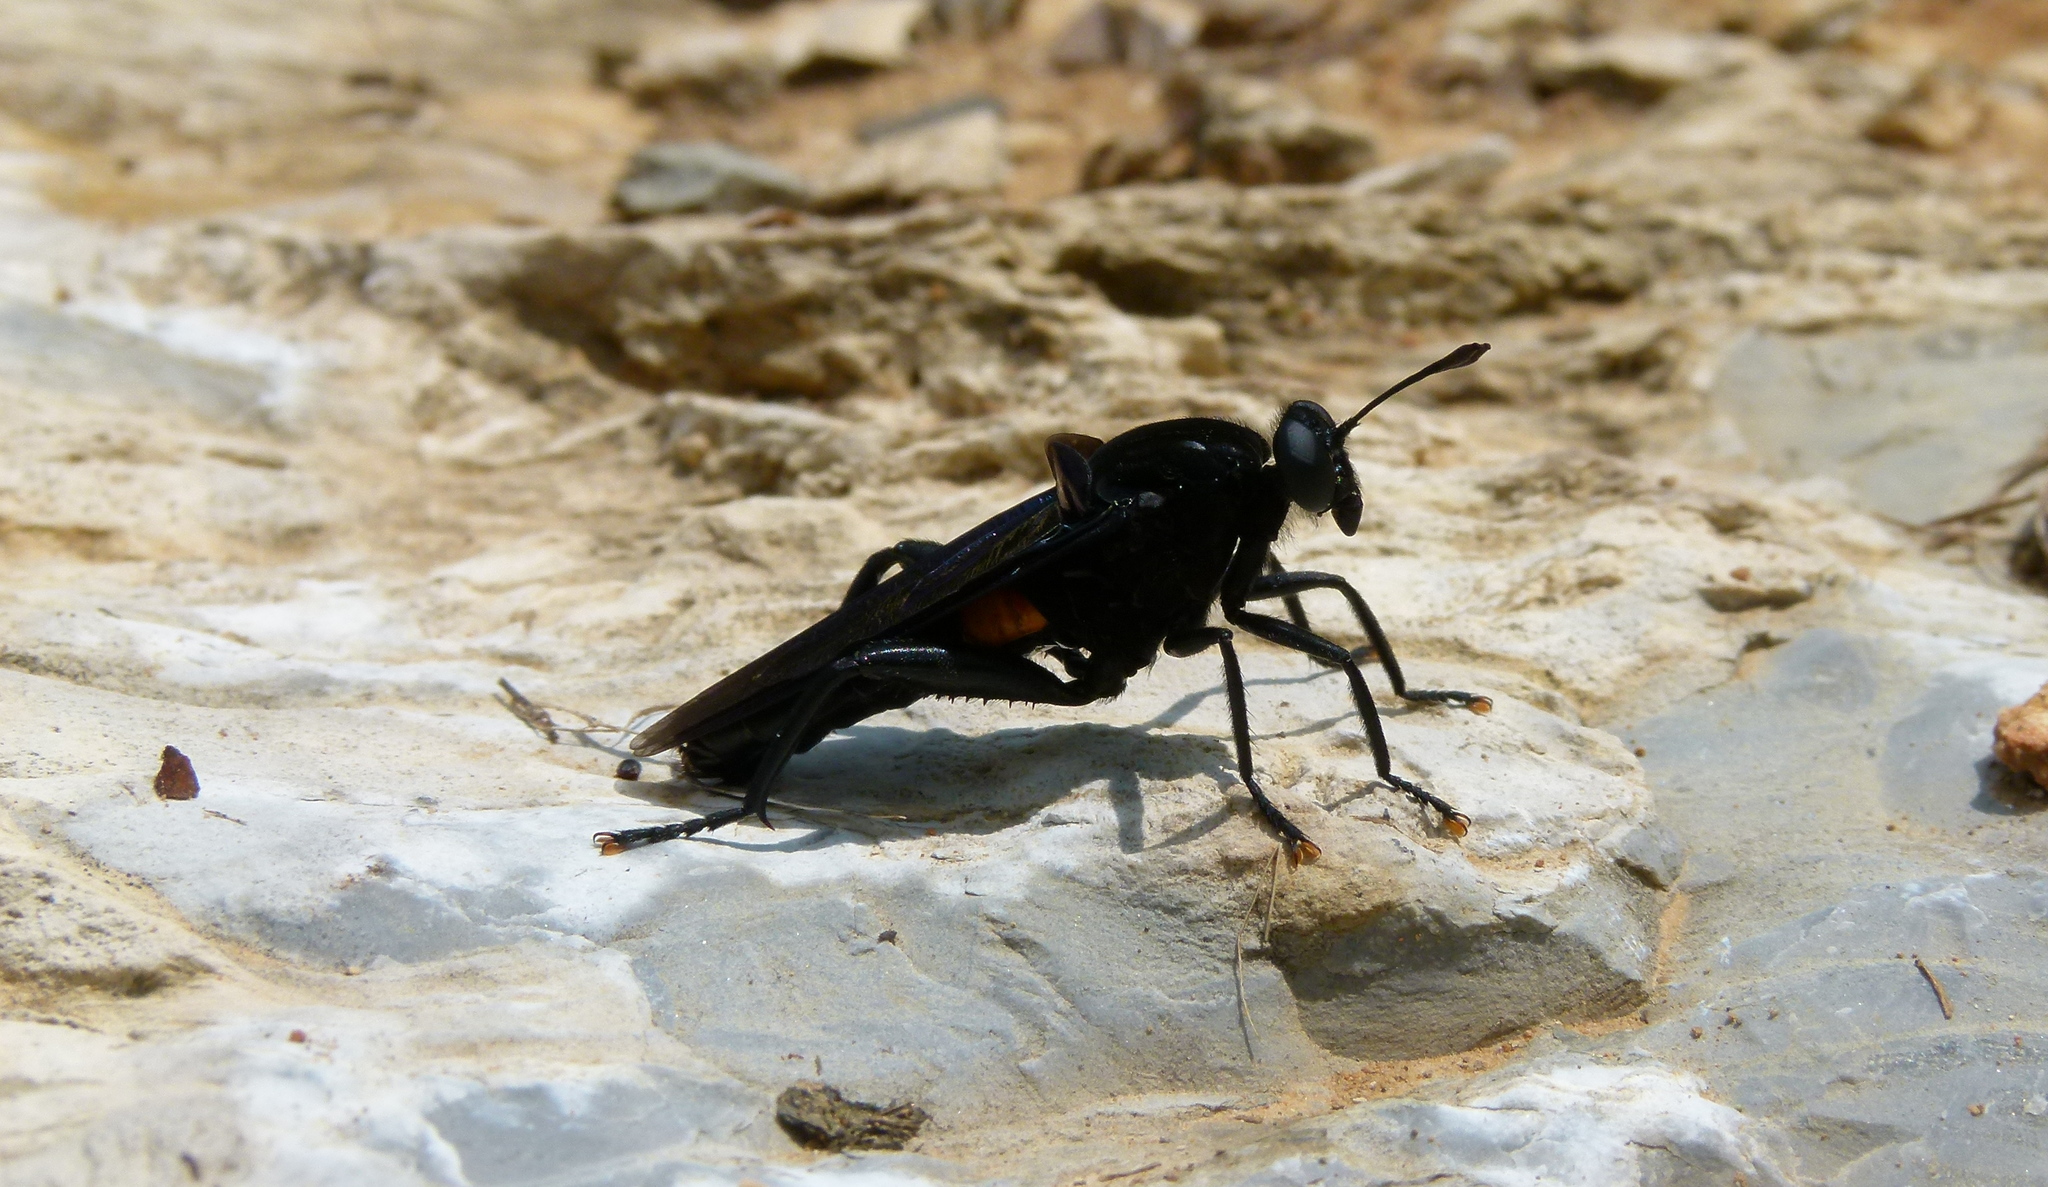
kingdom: Animalia
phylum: Arthropoda
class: Insecta
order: Diptera
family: Mydidae
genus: Mydas
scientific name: Mydas clavatus
